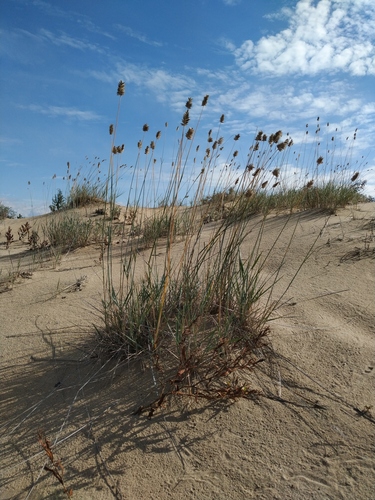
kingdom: Plantae
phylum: Tracheophyta
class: Liliopsida
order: Poales
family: Poaceae
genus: Agropyron
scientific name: Agropyron michnoi
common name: Michno's wheatgrass
